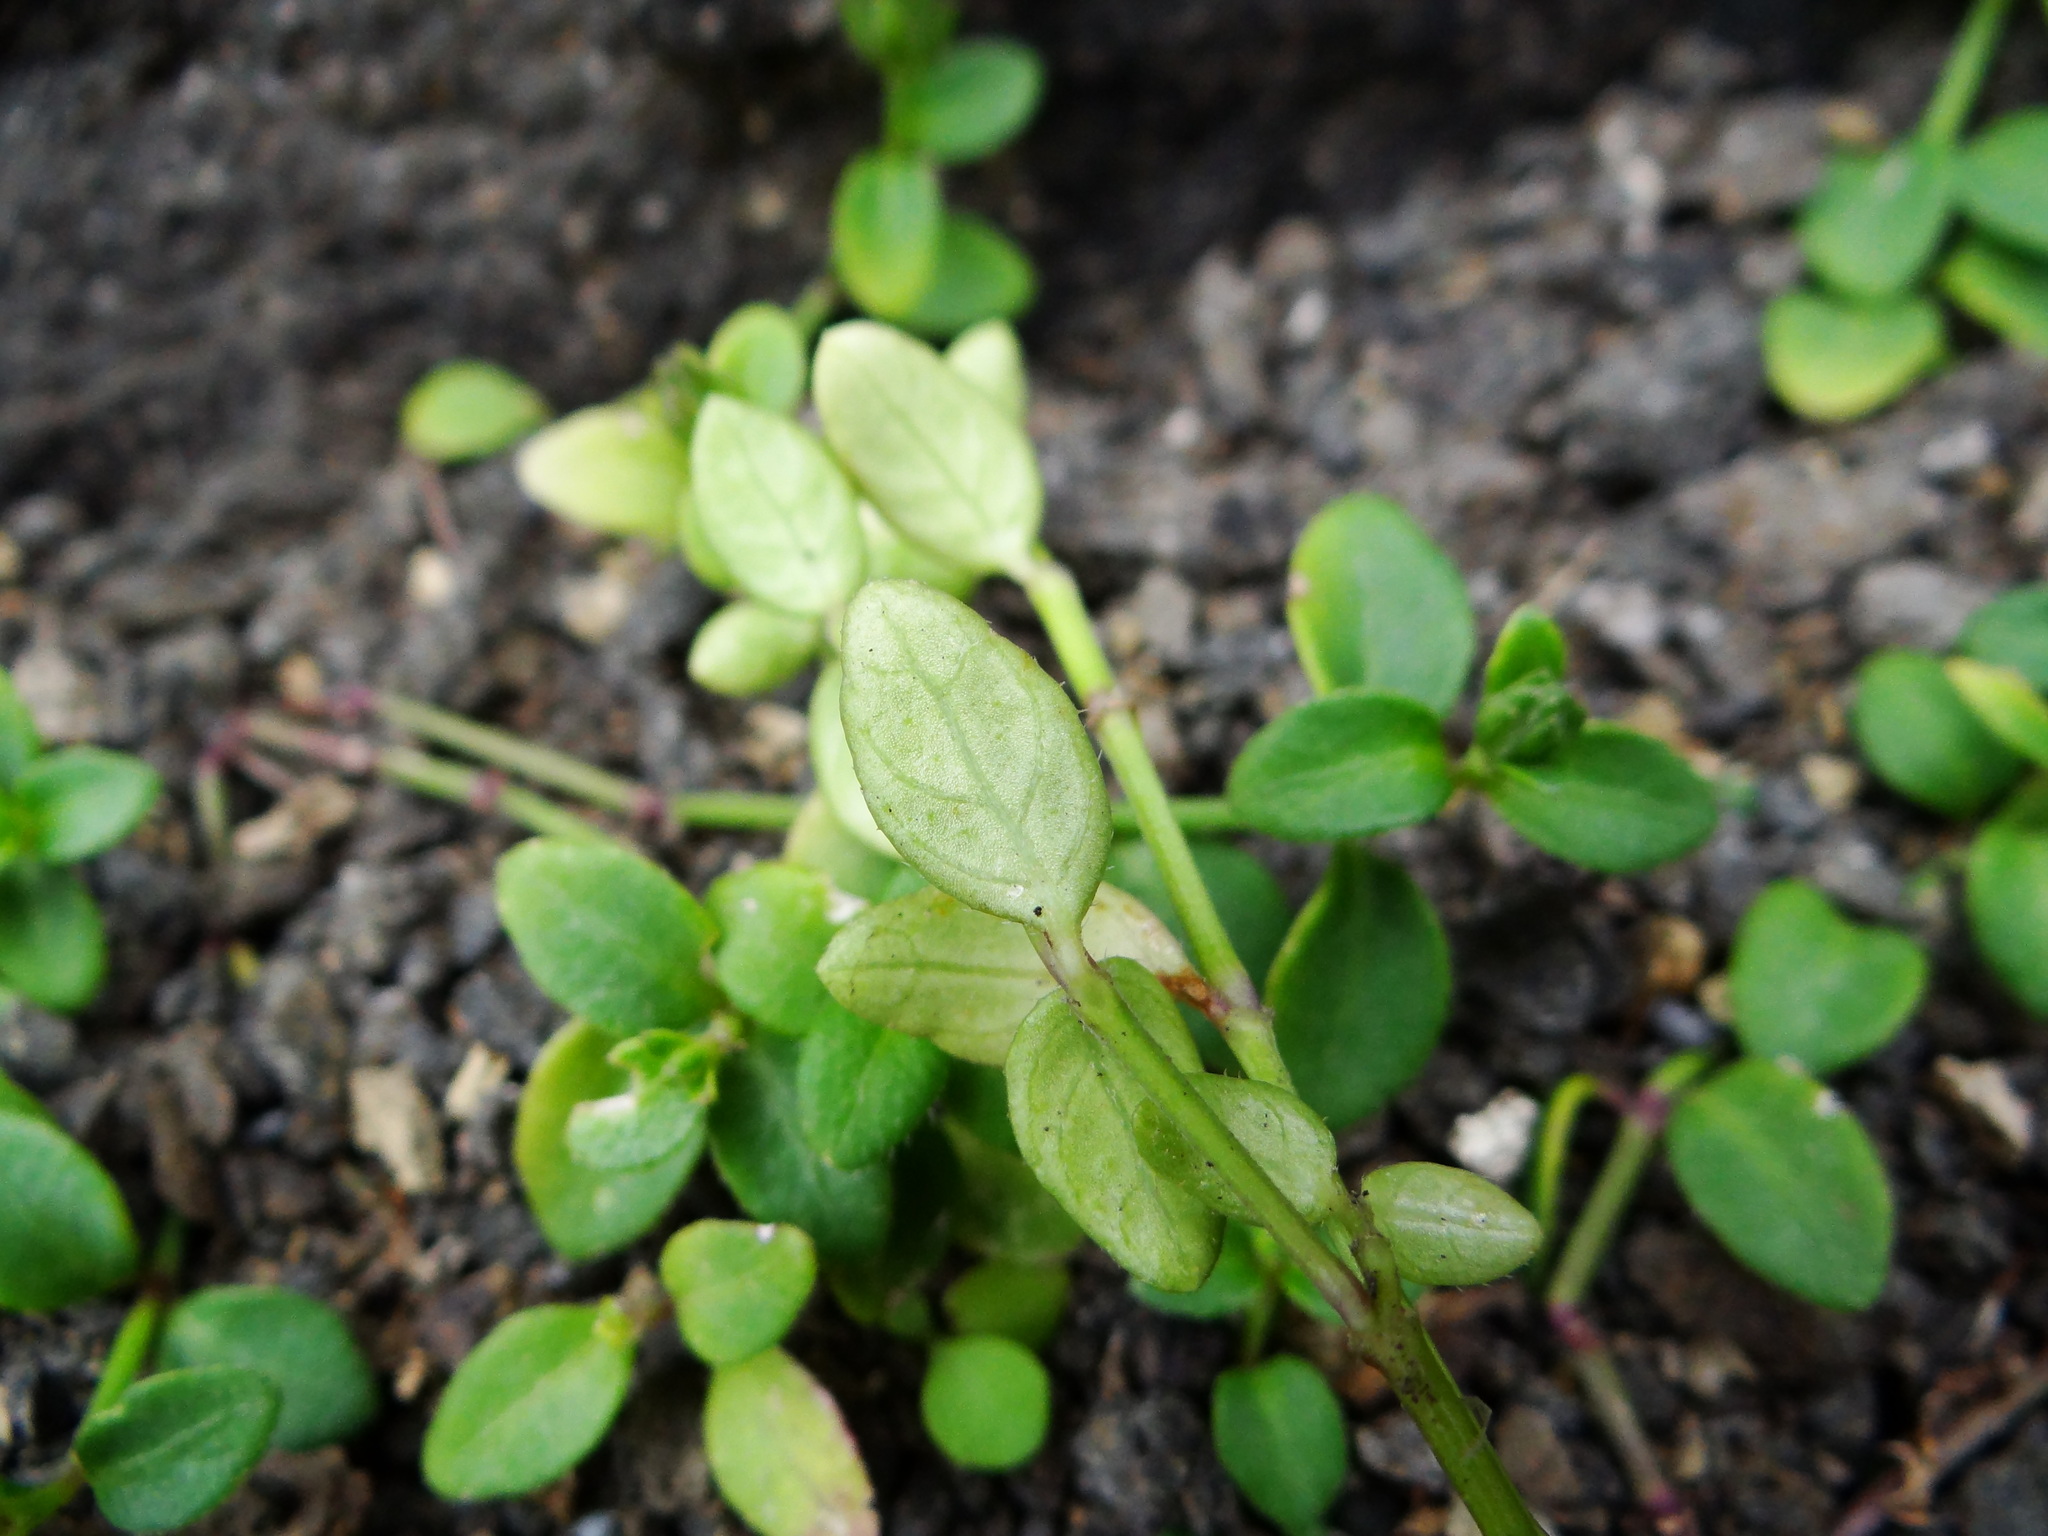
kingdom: Plantae
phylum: Tracheophyta
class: Magnoliopsida
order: Lamiales
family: Acanthaceae
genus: Rostellularia
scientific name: Rostellularia hayatae
